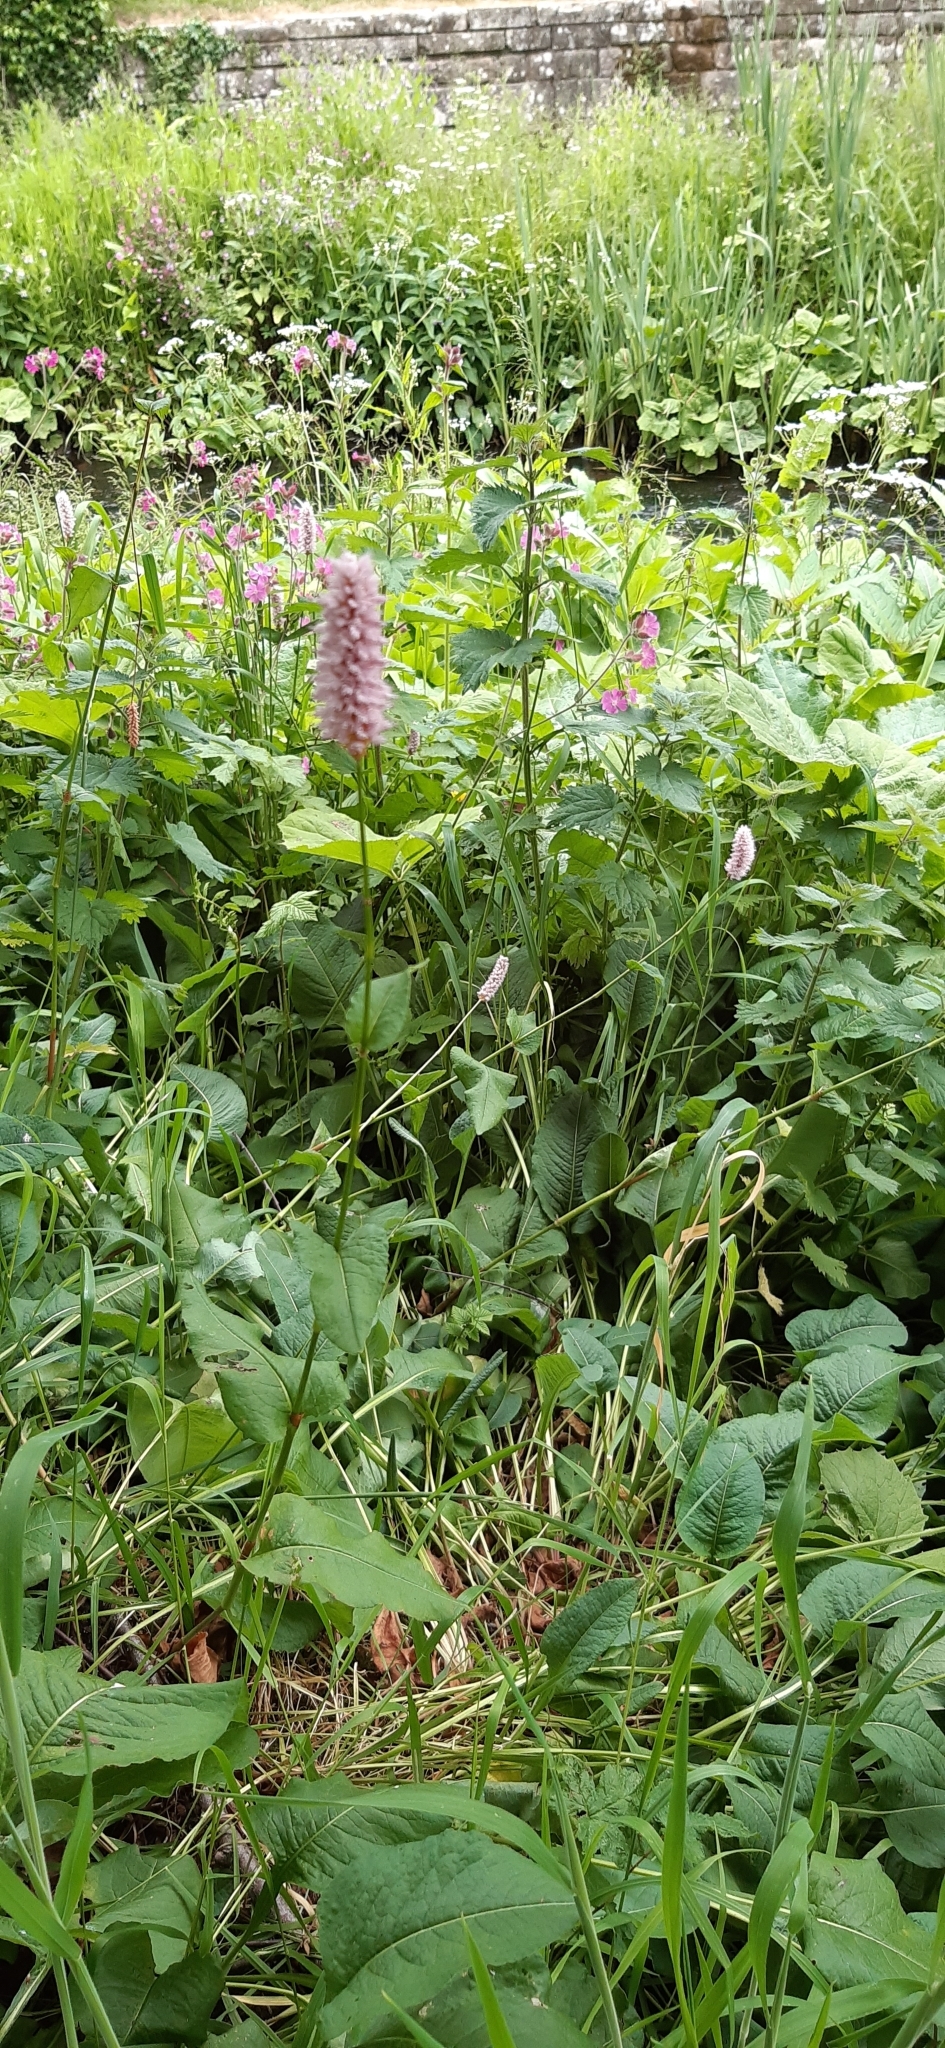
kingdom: Plantae
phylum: Tracheophyta
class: Magnoliopsida
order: Caryophyllales
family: Polygonaceae
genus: Bistorta
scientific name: Bistorta officinalis
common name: Common bistort
